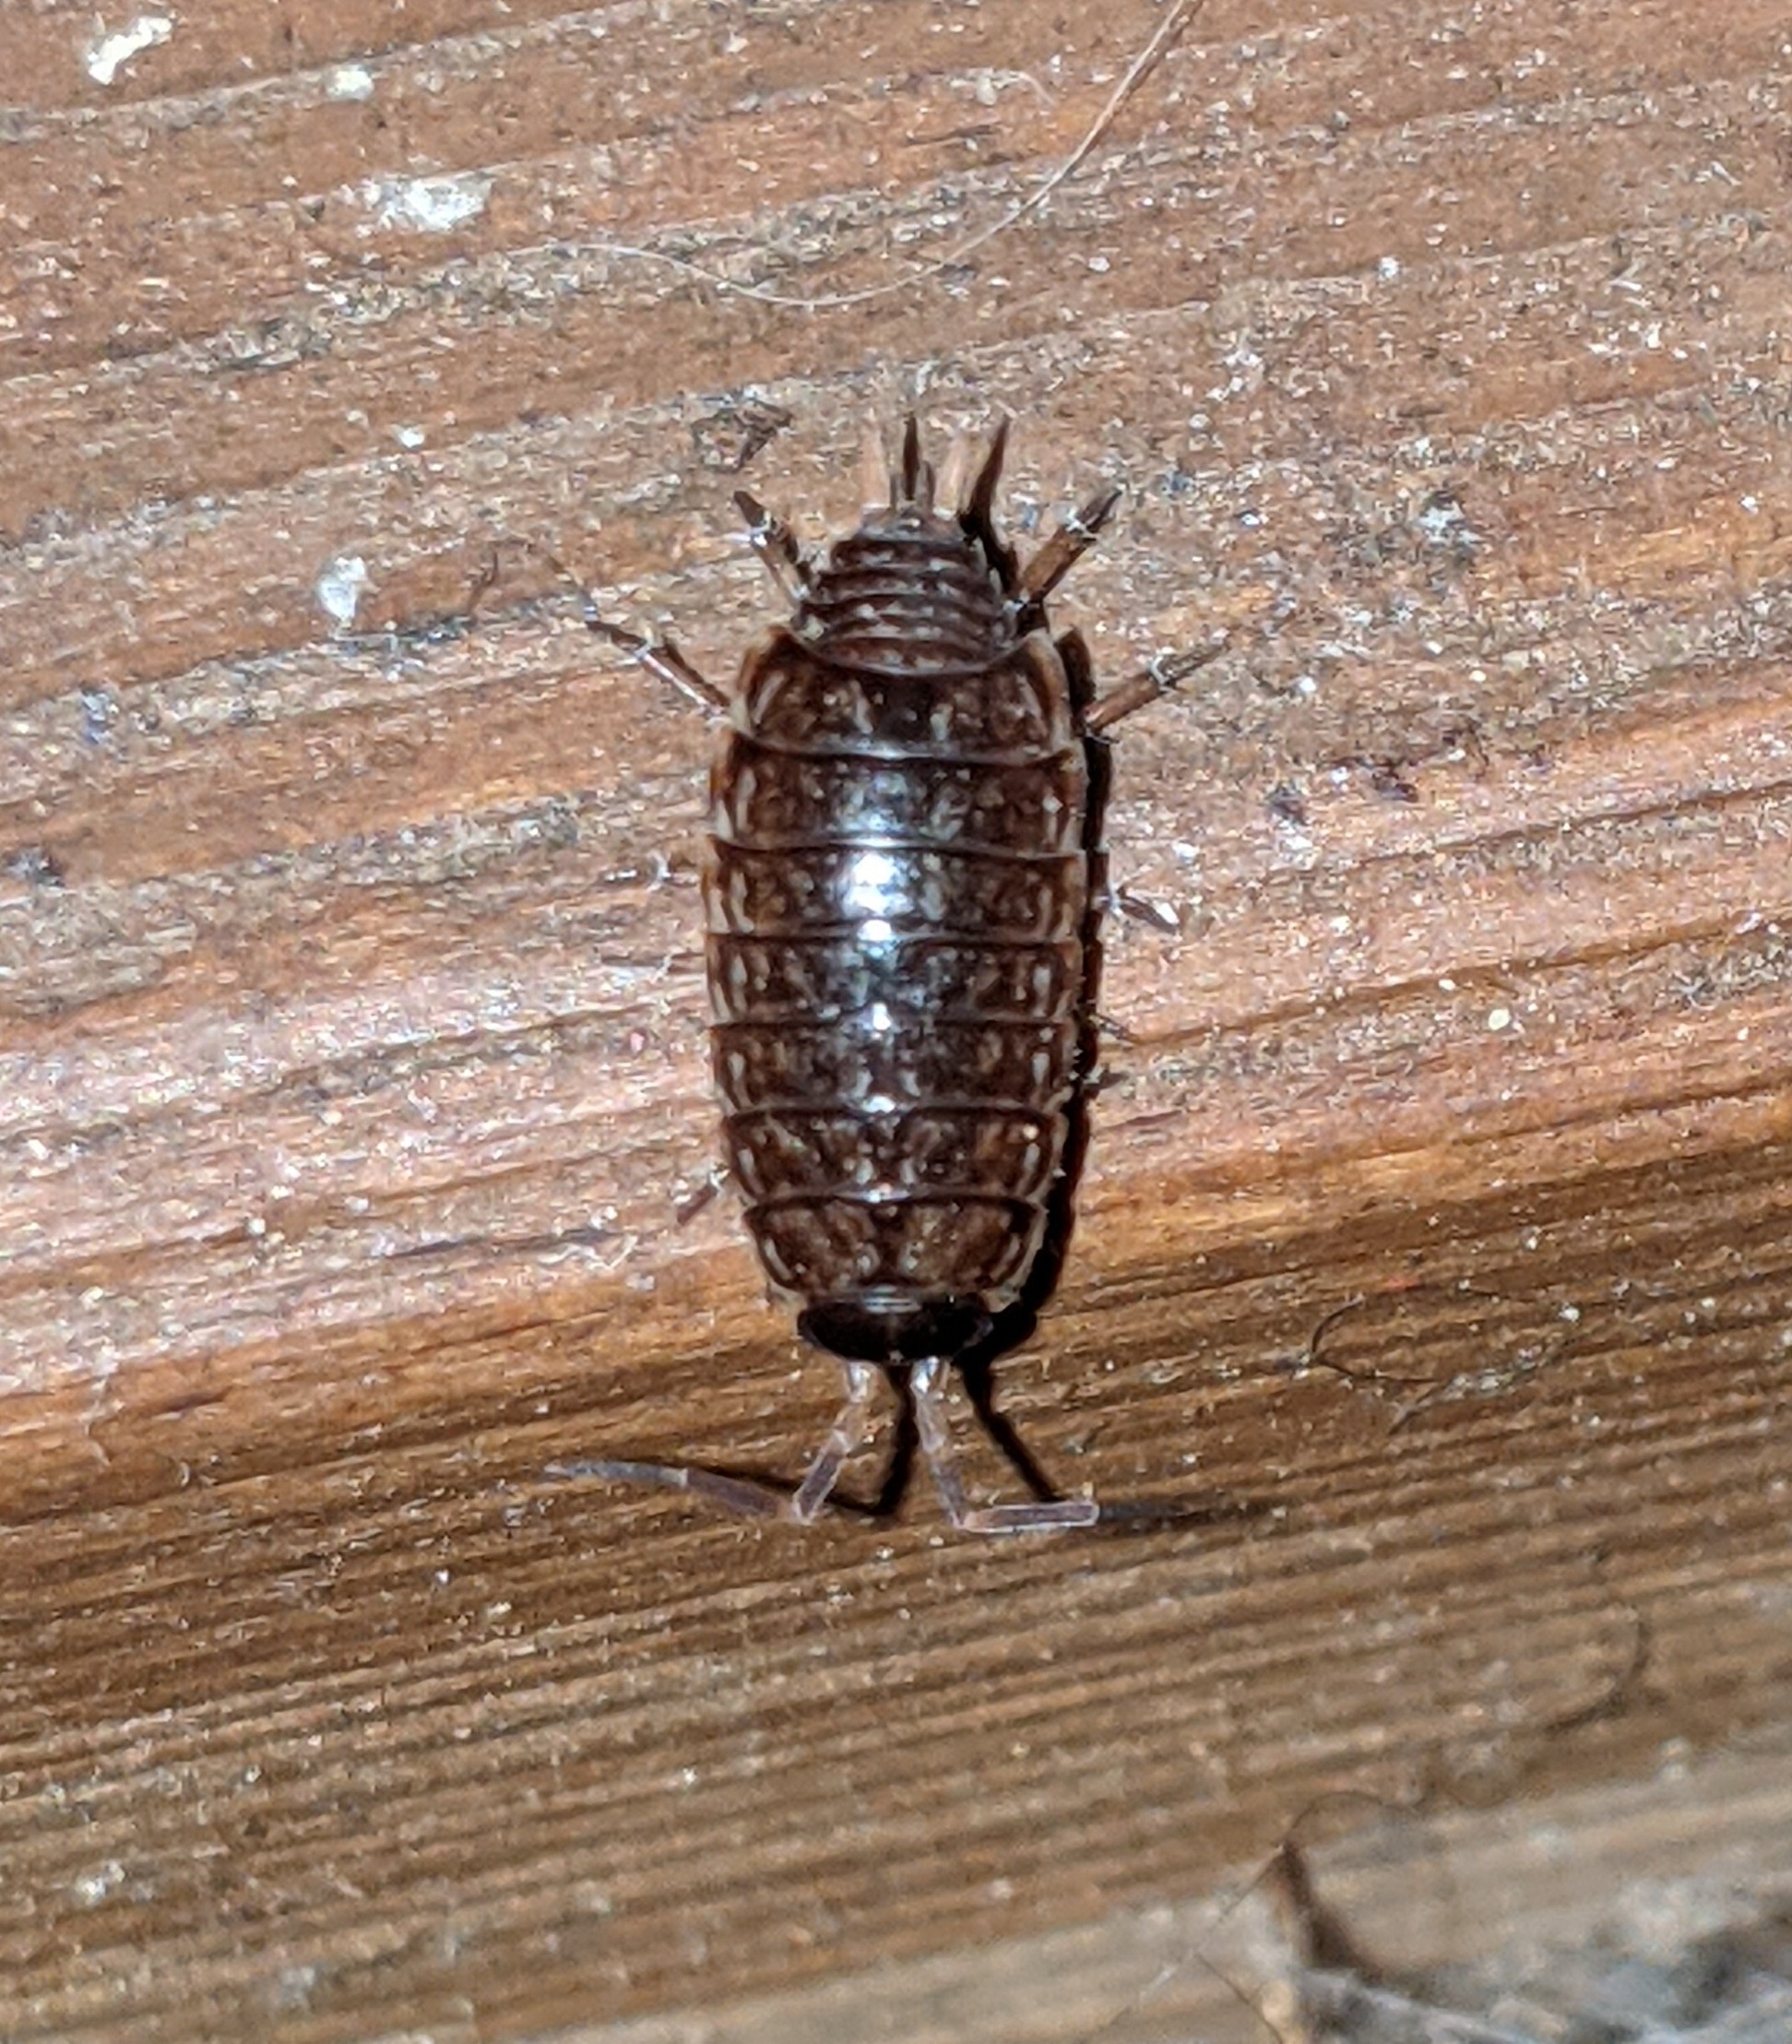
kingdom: Animalia
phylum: Arthropoda
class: Malacostraca
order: Isopoda
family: Philosciidae
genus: Philoscia
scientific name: Philoscia muscorum
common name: Common striped woodlouse
